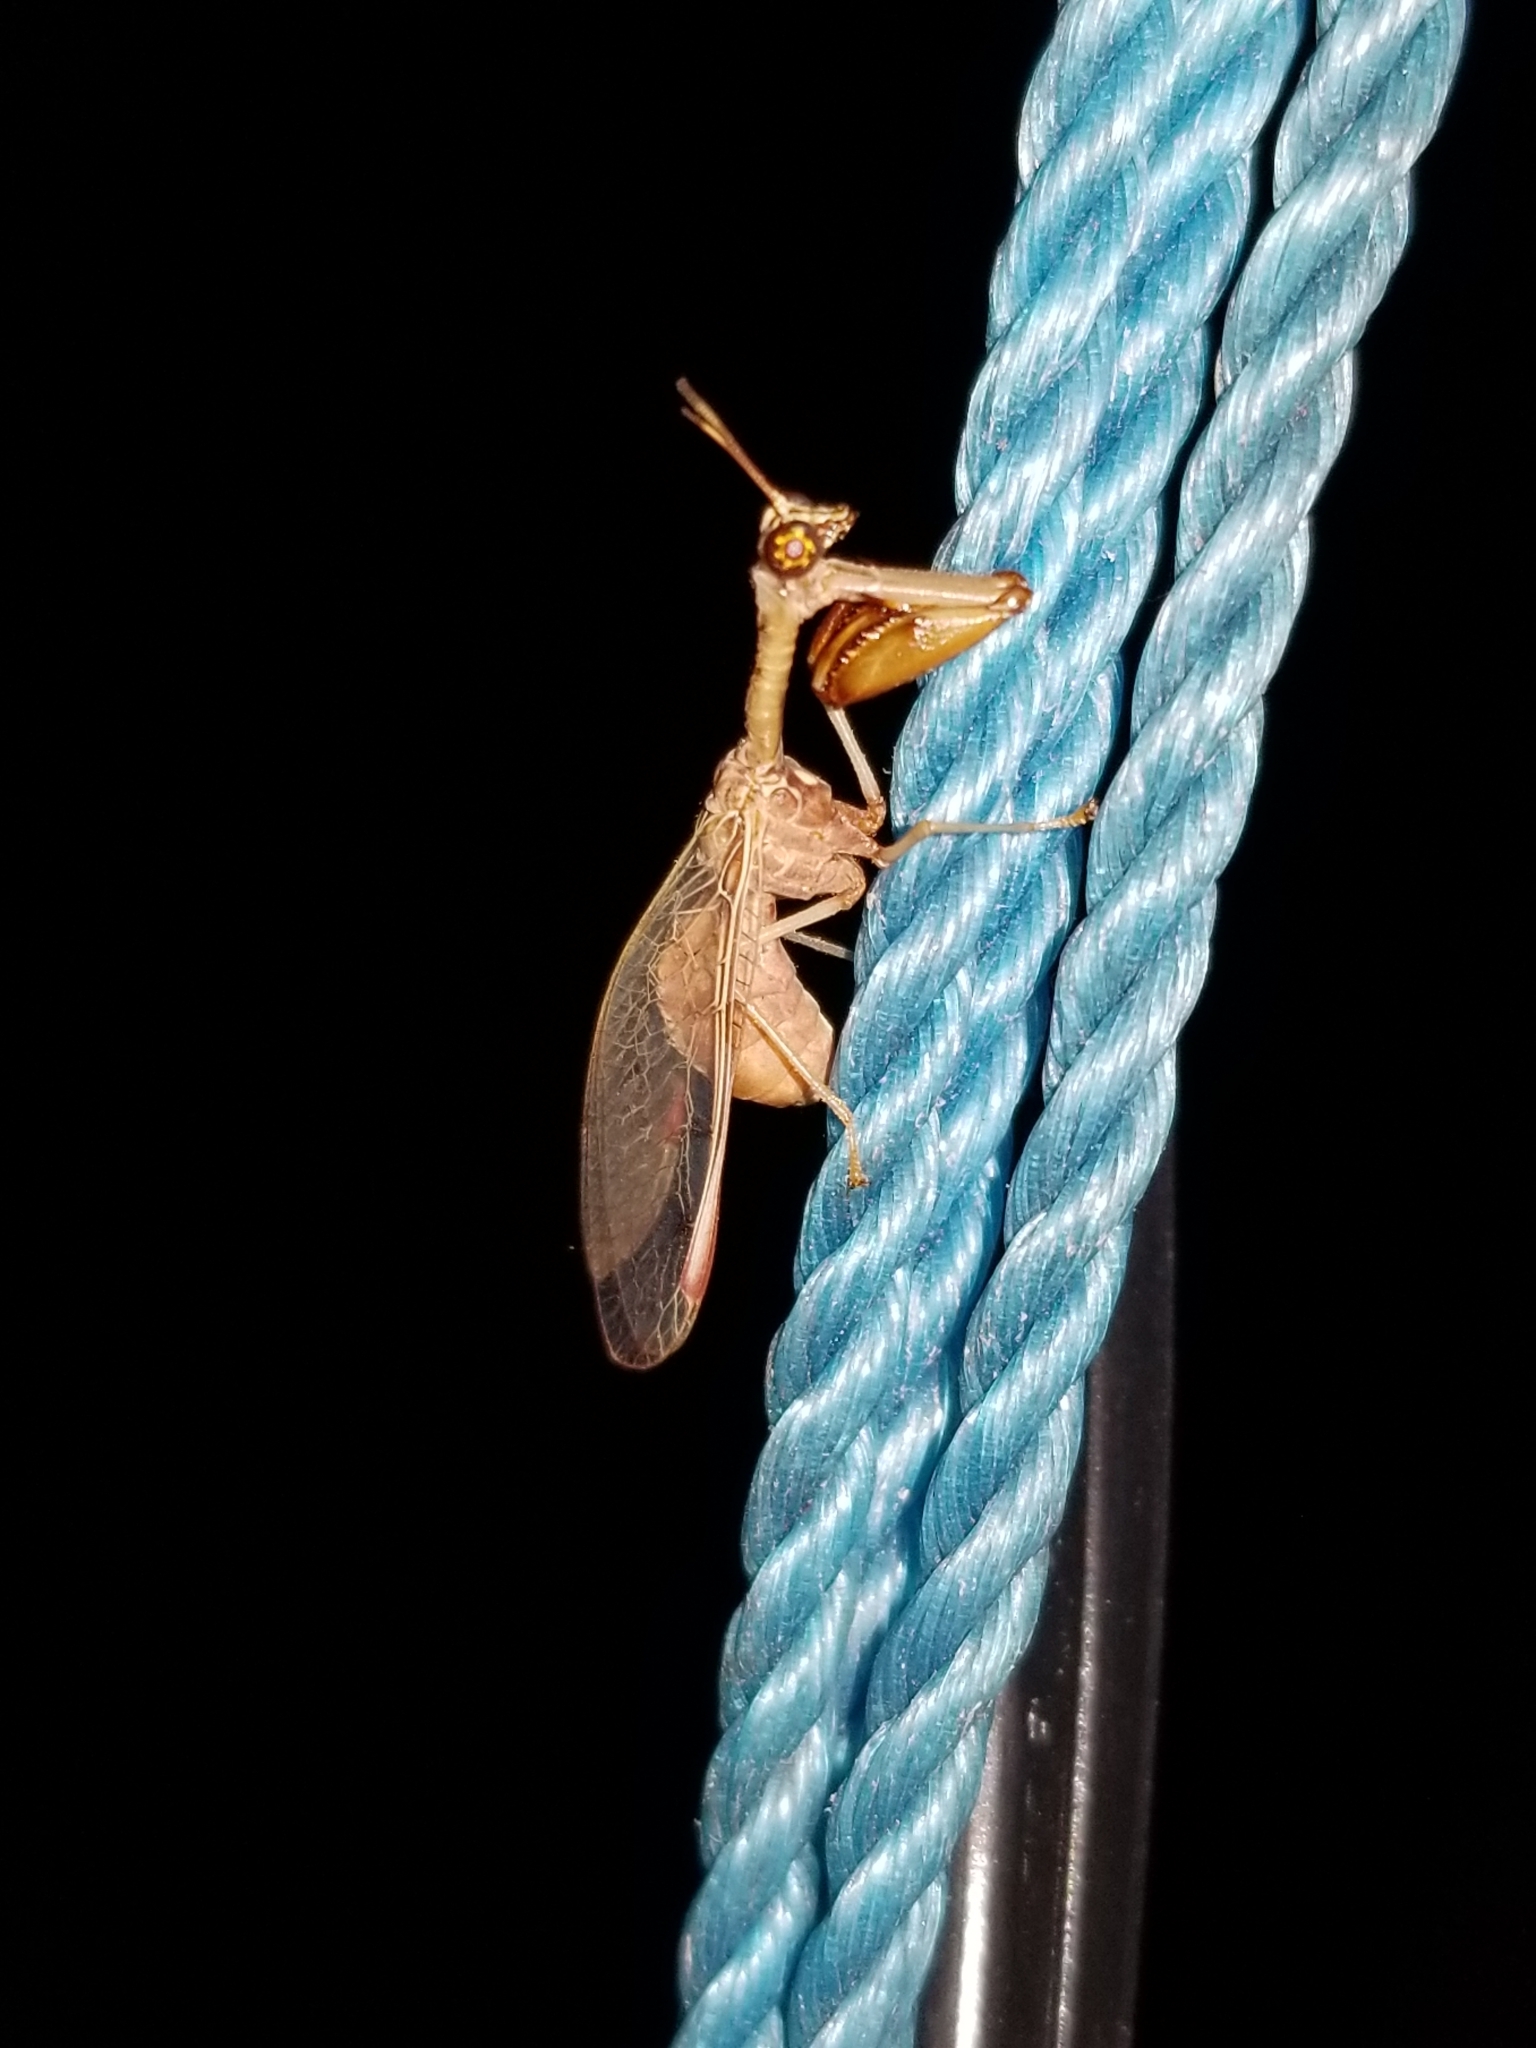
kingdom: Animalia
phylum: Arthropoda
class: Insecta
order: Neuroptera
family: Mantispidae
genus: Dicromantispa
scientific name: Dicromantispa interrupta
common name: Four-spotted mantidfly
